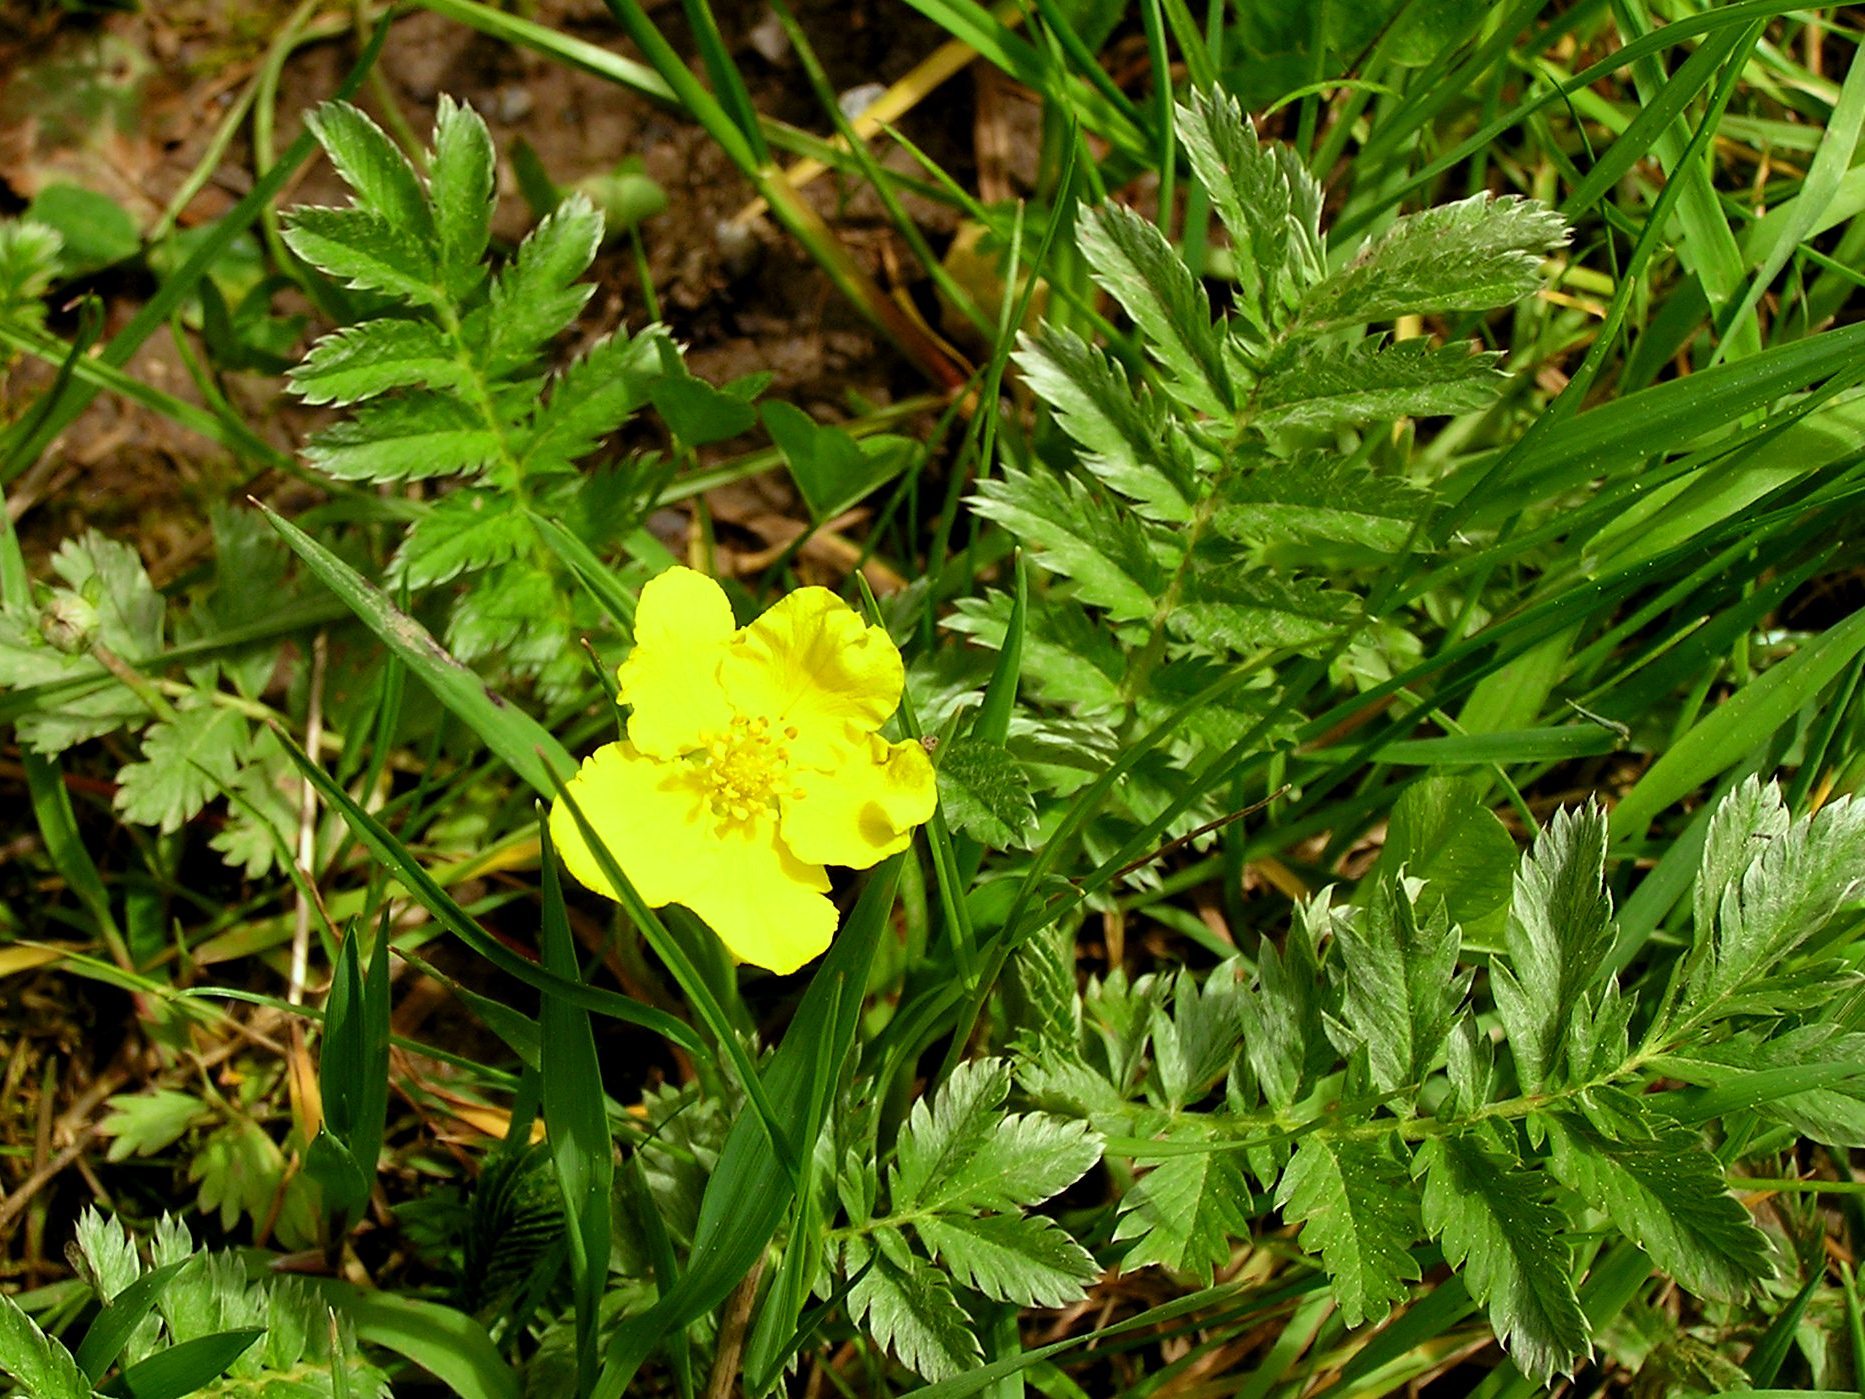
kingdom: Plantae
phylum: Tracheophyta
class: Magnoliopsida
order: Rosales
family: Rosaceae
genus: Argentina
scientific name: Argentina anserina
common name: Common silverweed
